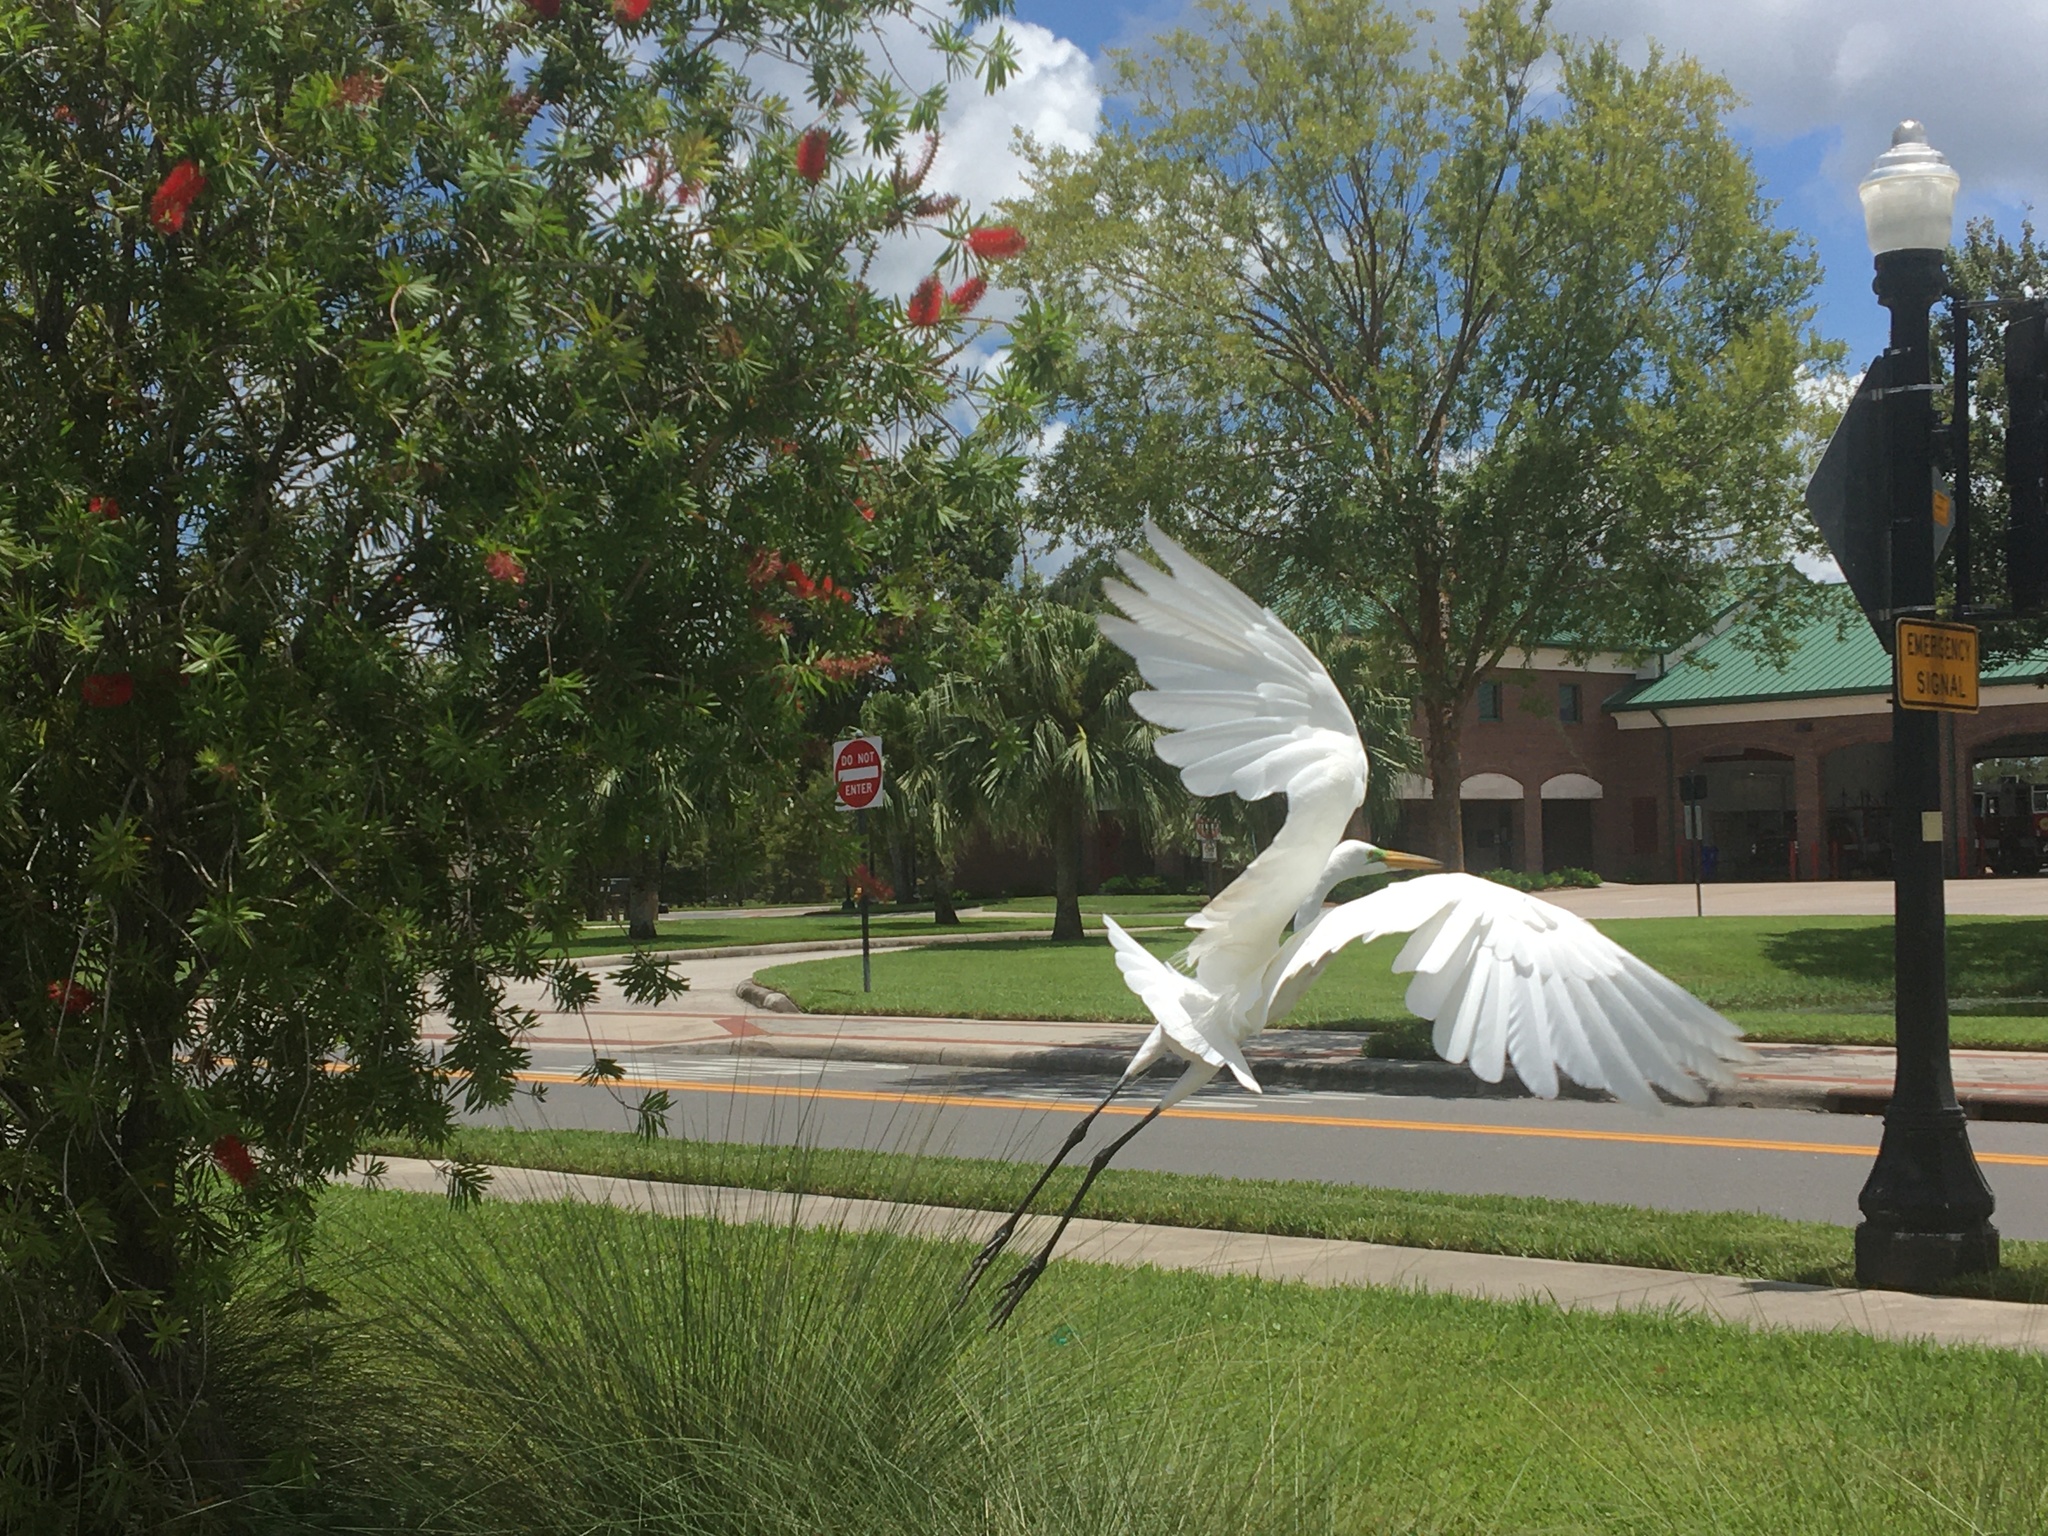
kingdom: Animalia
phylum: Chordata
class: Aves
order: Pelecaniformes
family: Ardeidae
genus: Ardea
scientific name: Ardea alba
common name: Great egret
